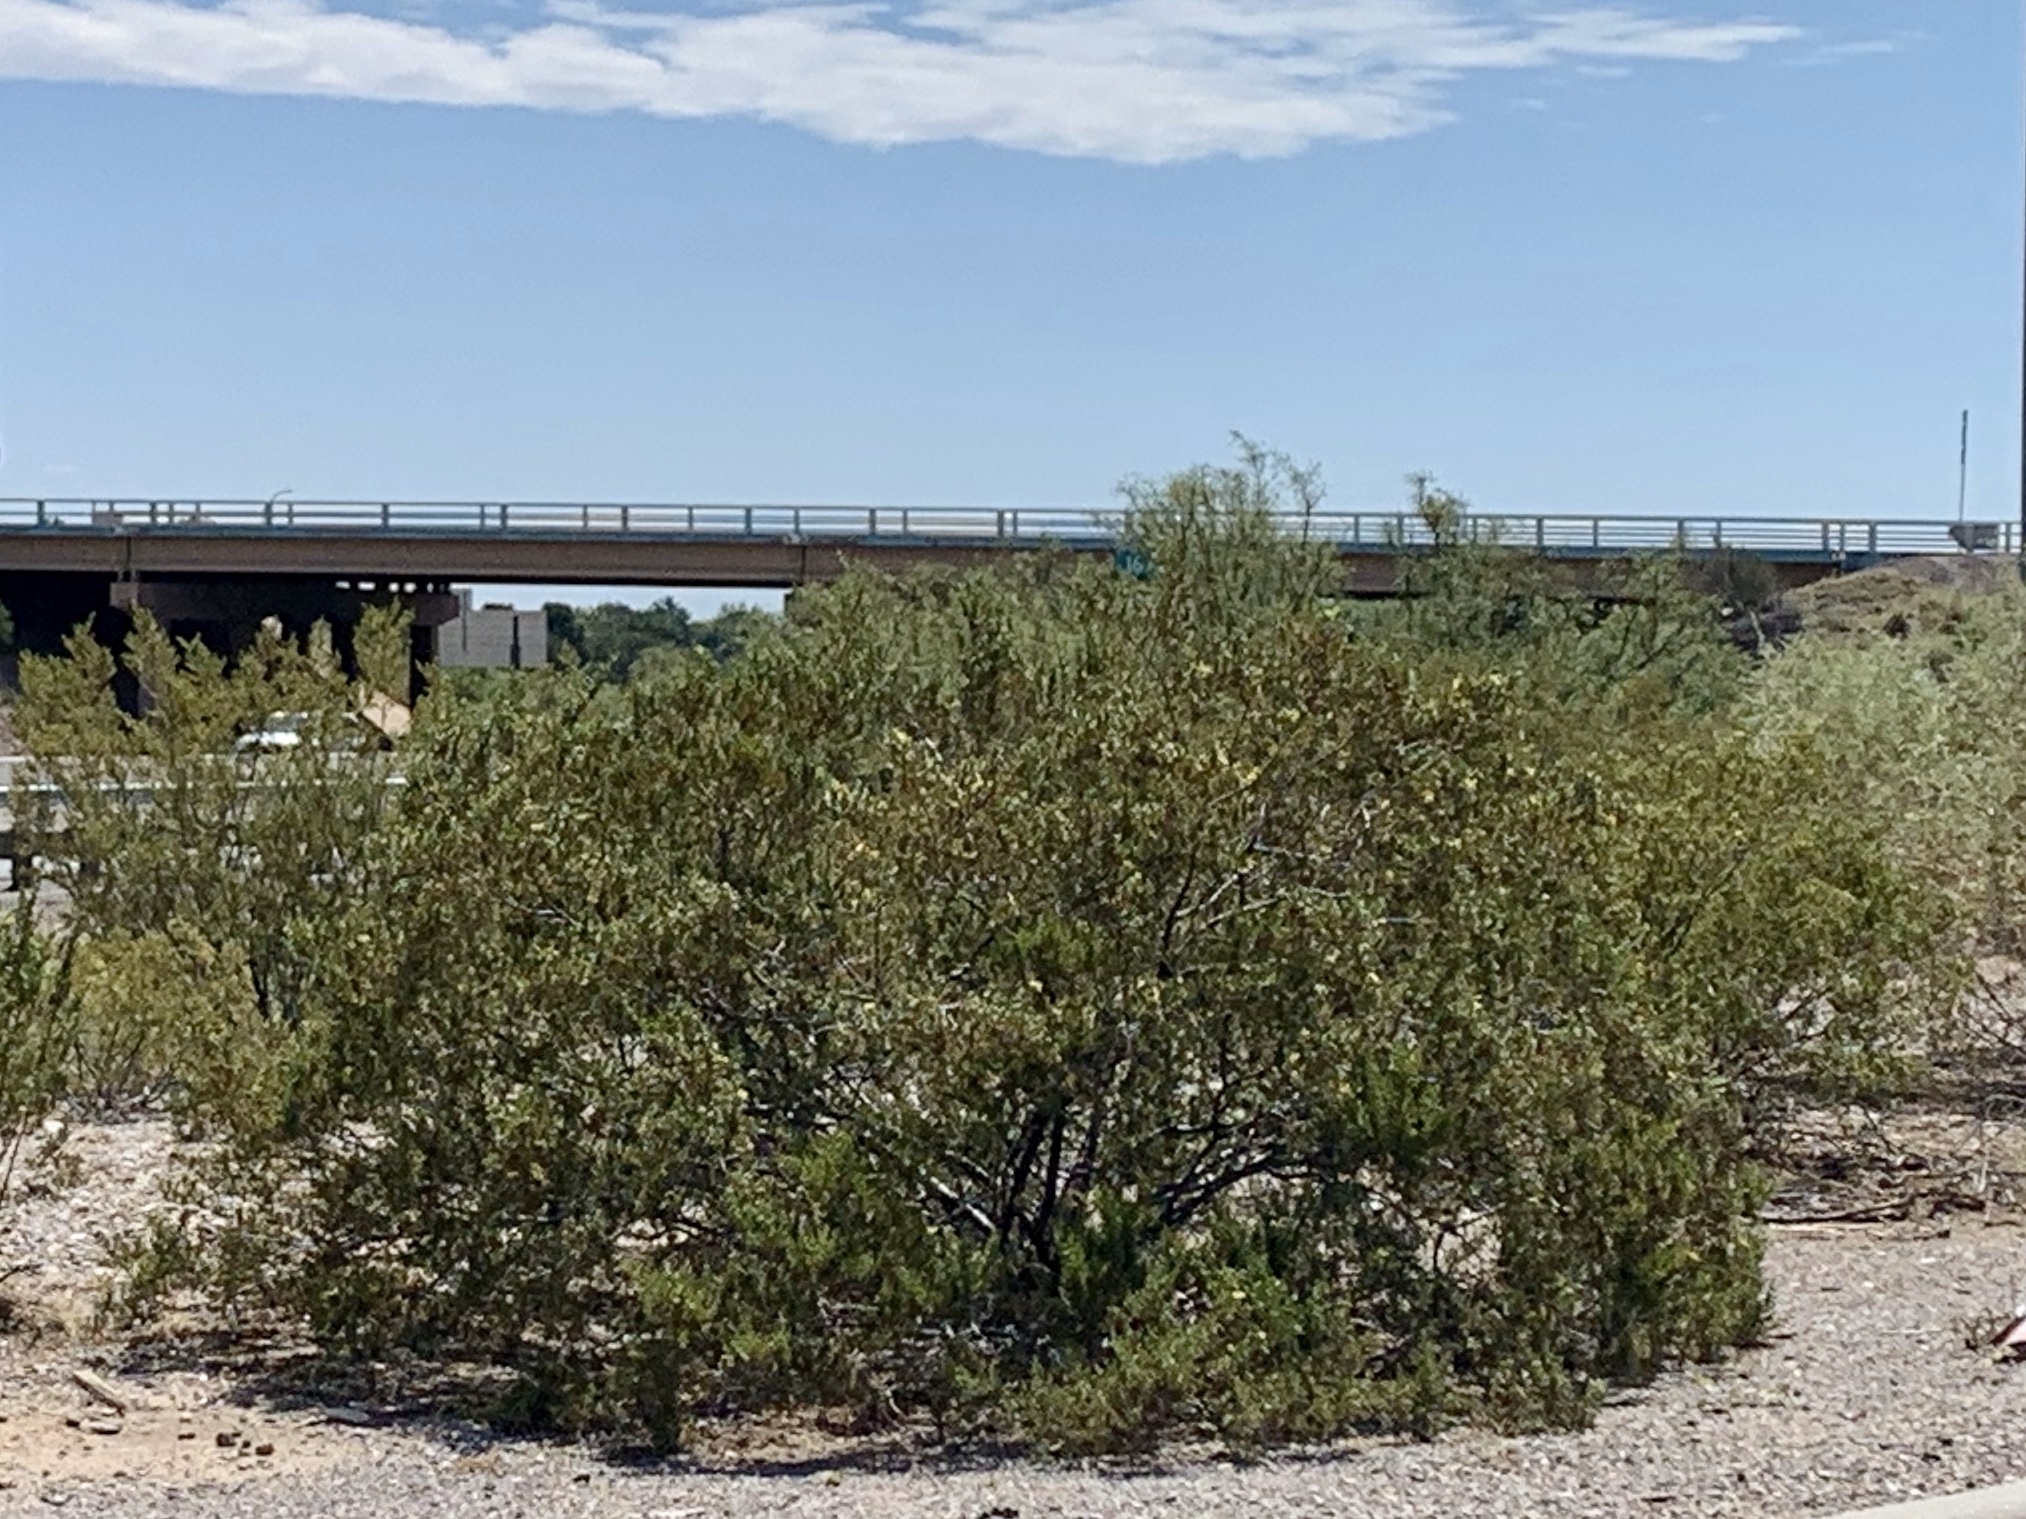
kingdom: Plantae
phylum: Tracheophyta
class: Magnoliopsida
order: Zygophyllales
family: Zygophyllaceae
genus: Larrea
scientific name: Larrea tridentata
